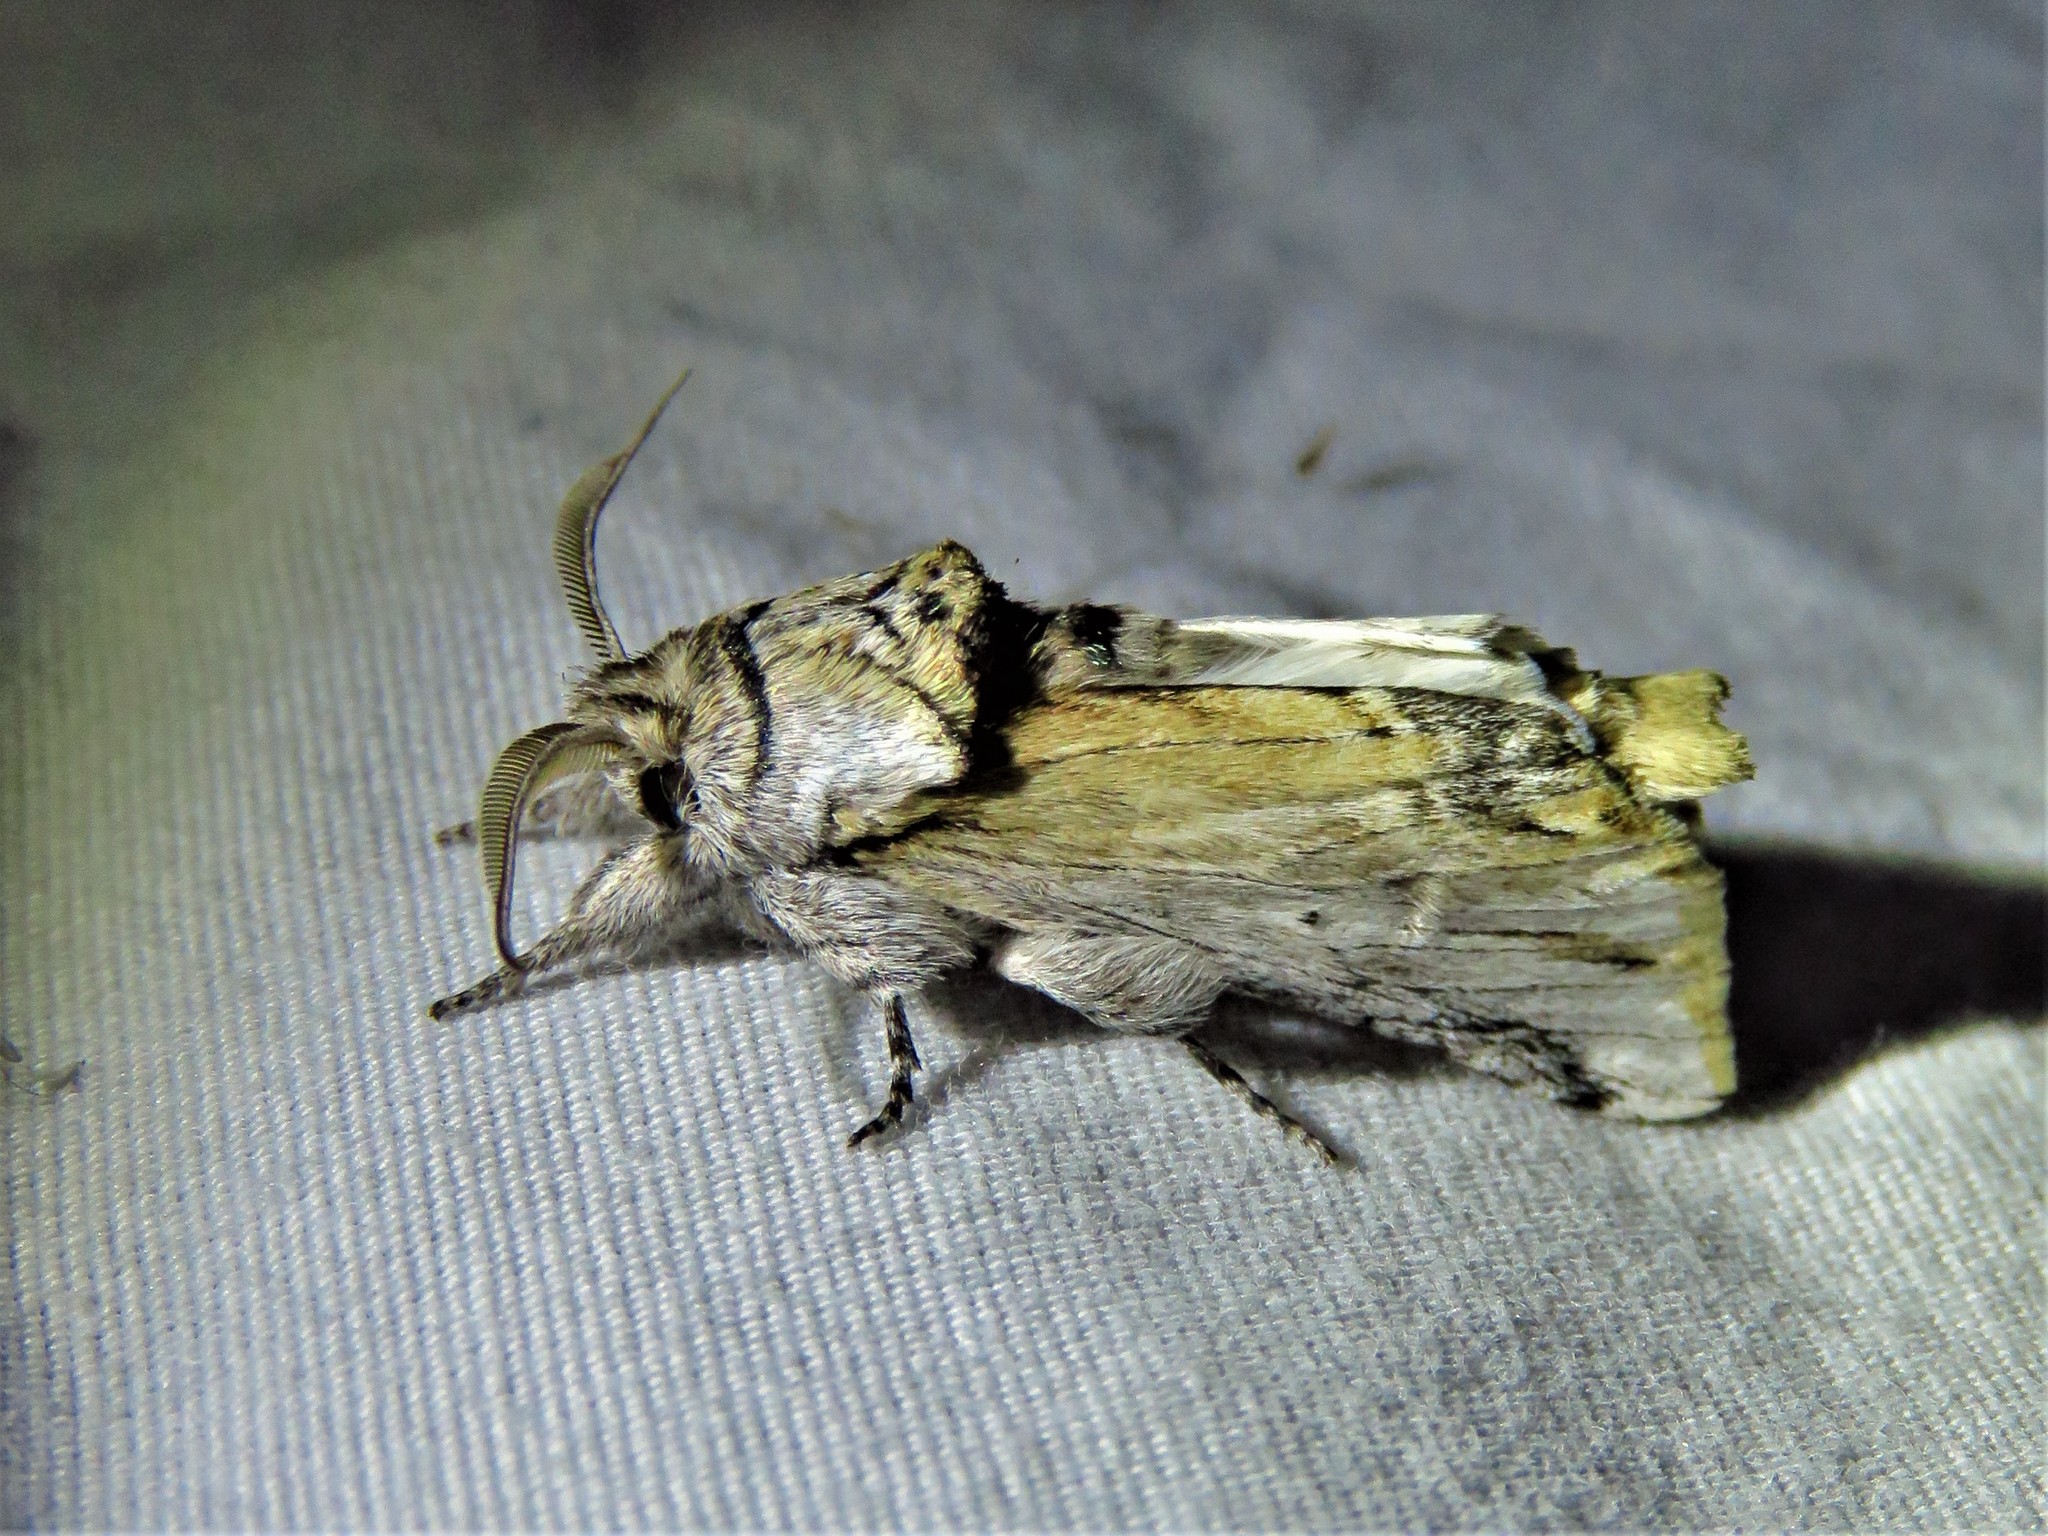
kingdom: Animalia
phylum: Arthropoda
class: Insecta
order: Lepidoptera
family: Notodontidae
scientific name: Notodontidae
